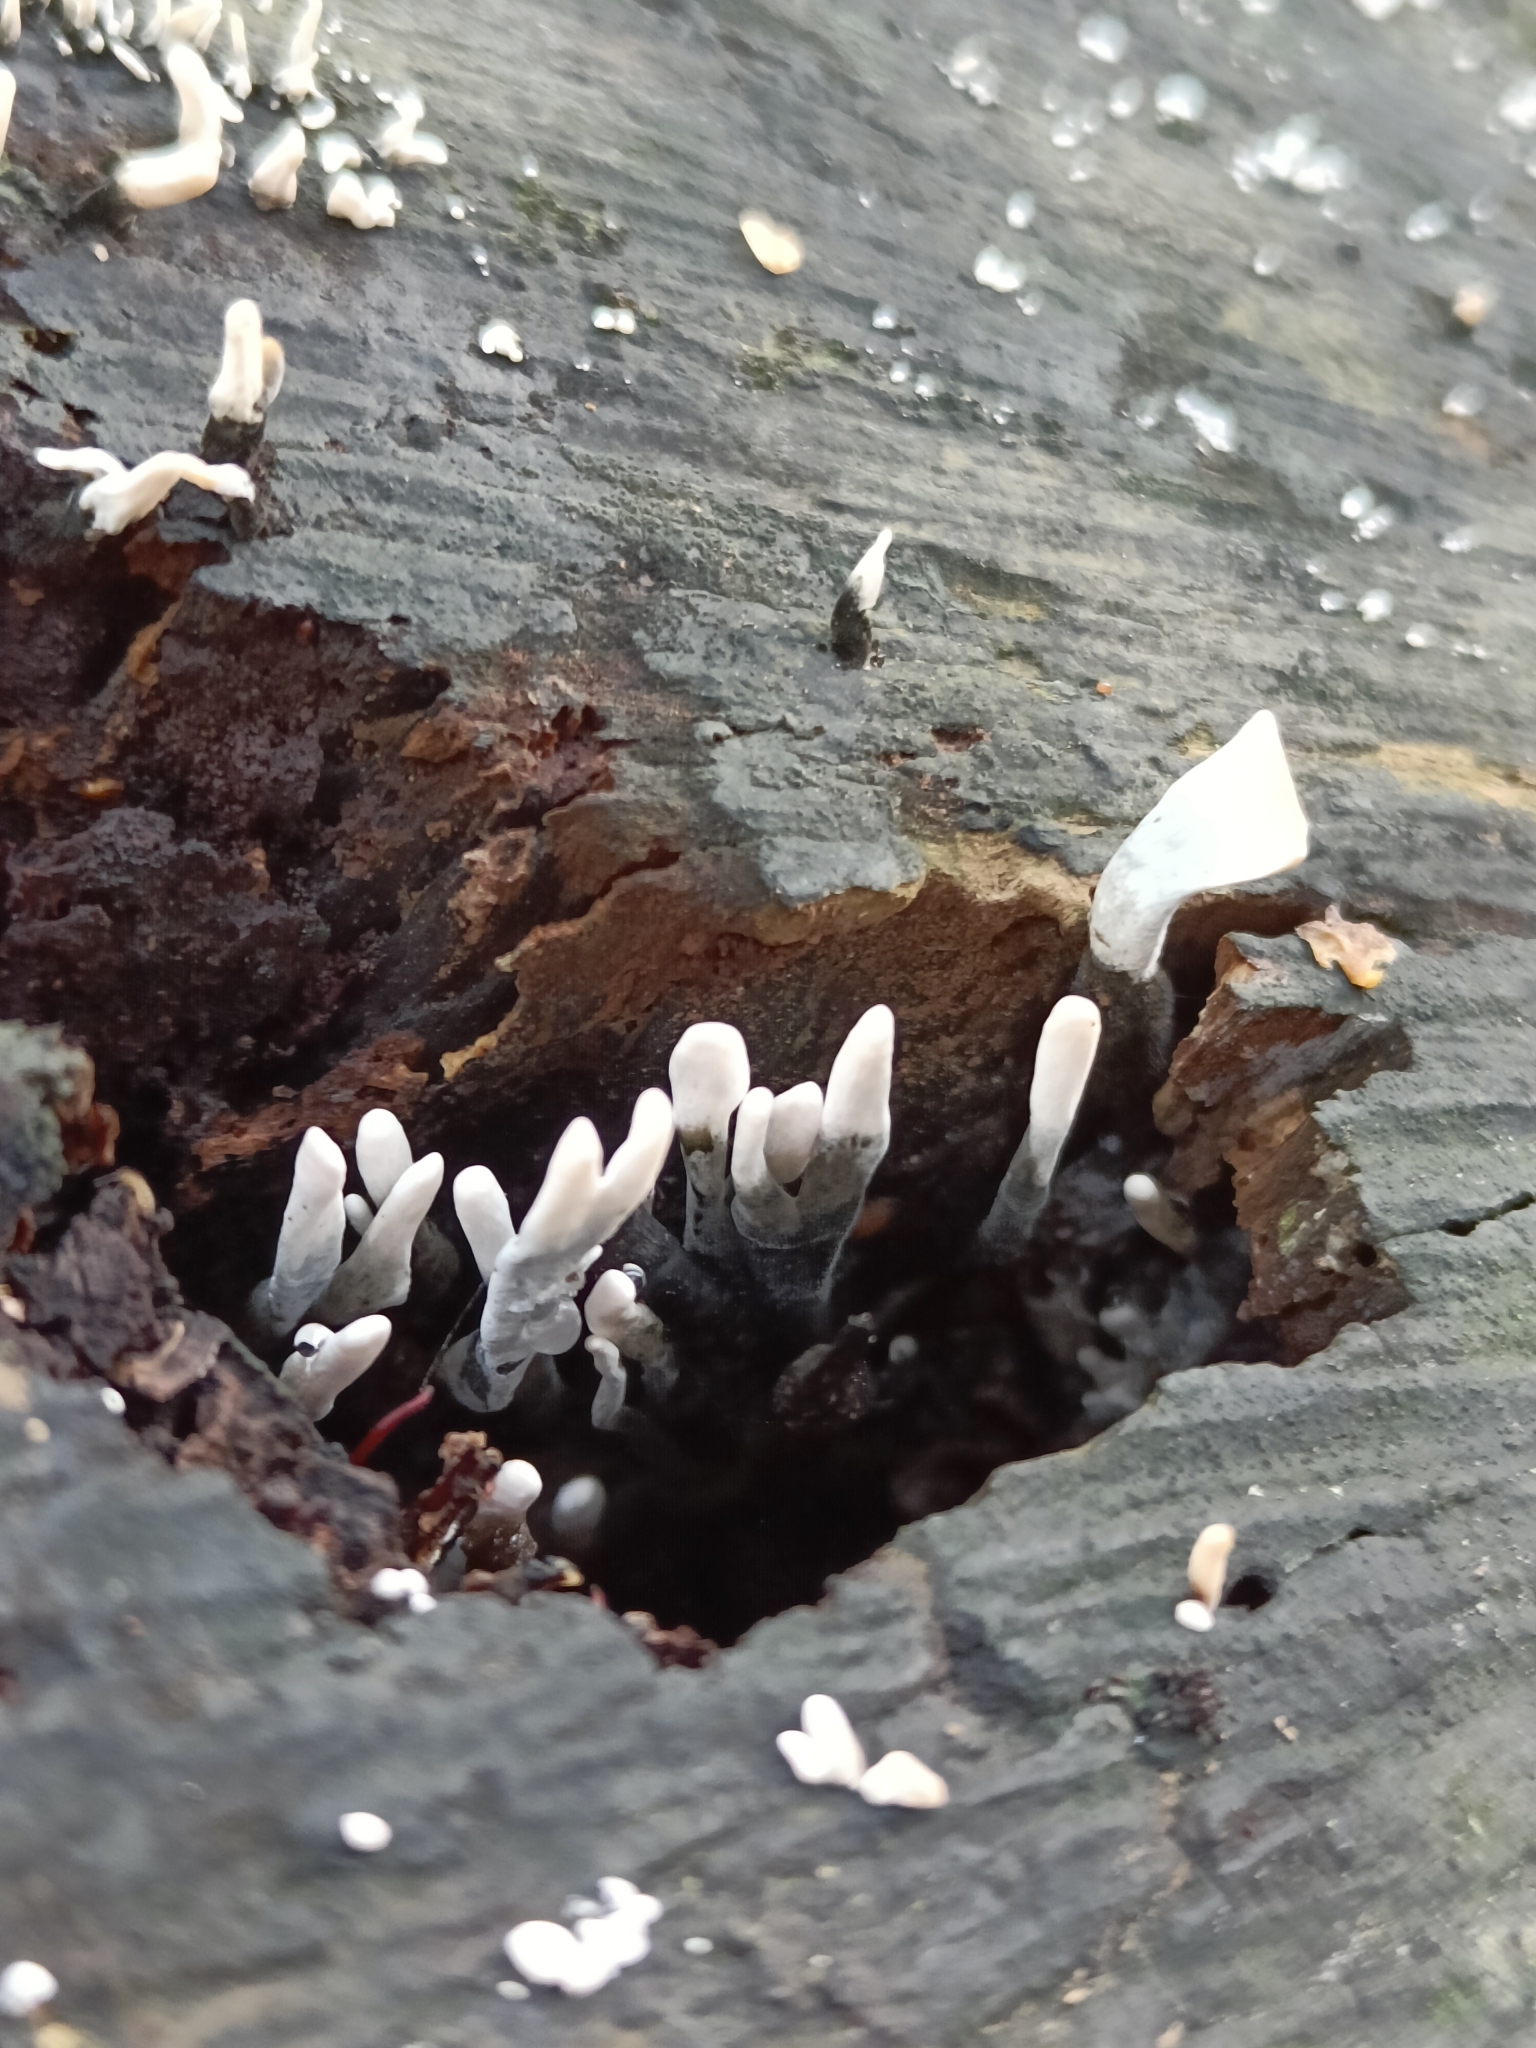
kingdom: Fungi
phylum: Ascomycota
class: Sordariomycetes
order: Xylariales
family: Xylariaceae
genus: Xylaria
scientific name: Xylaria hypoxylon
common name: Candle-snuff fungus
